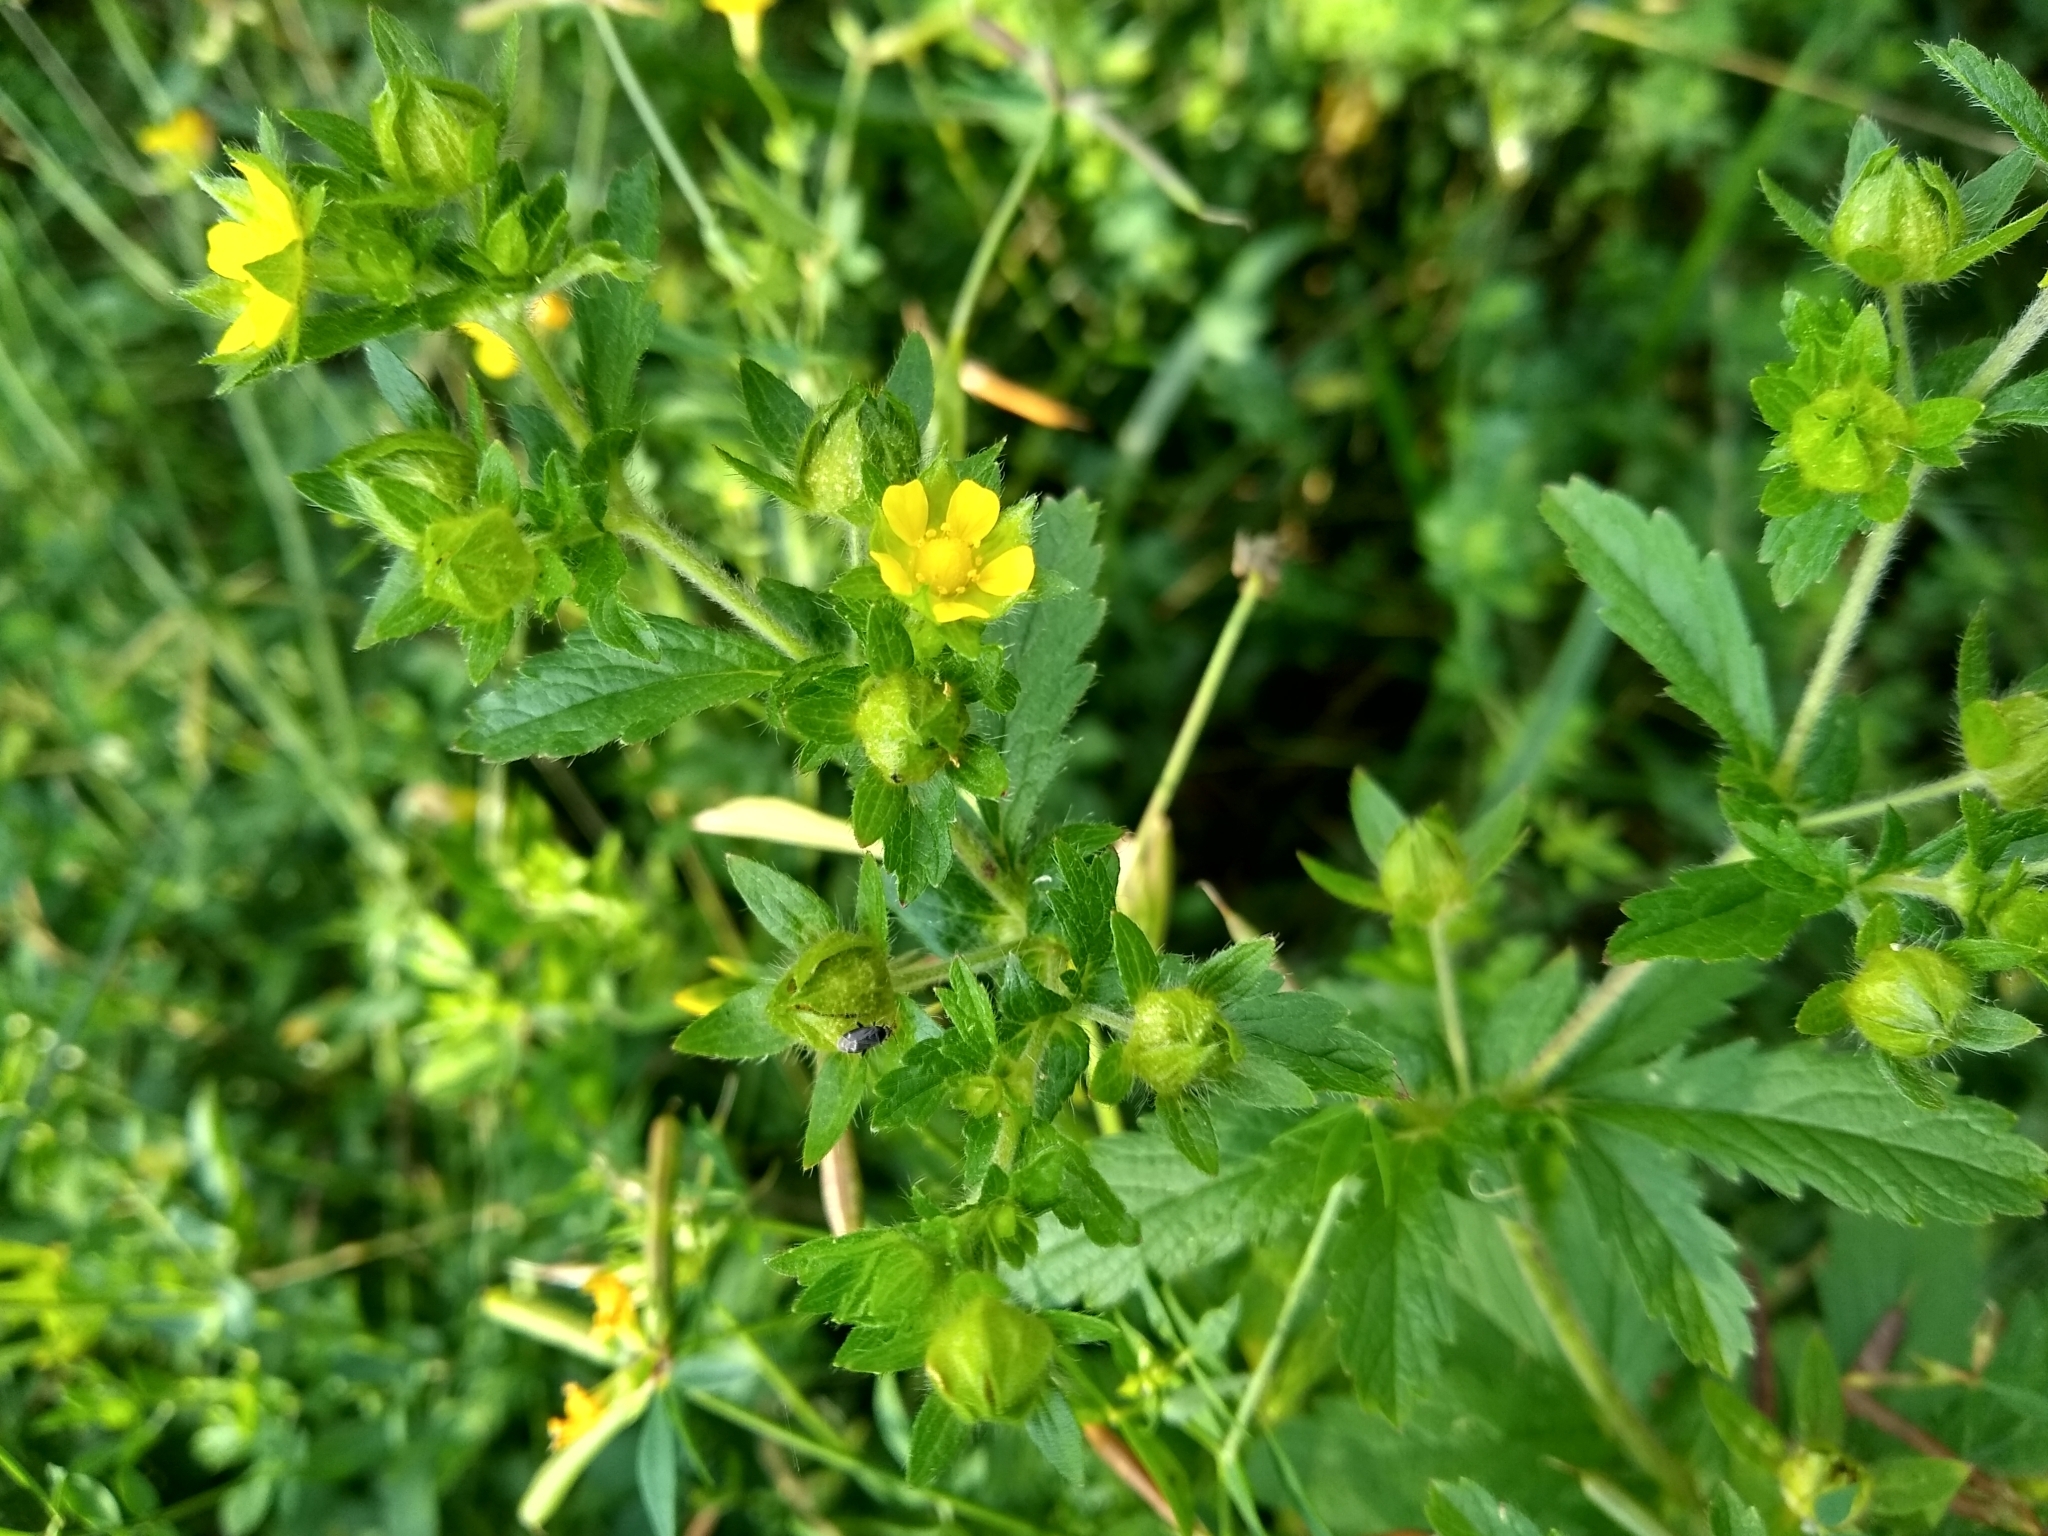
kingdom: Plantae
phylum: Tracheophyta
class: Magnoliopsida
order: Rosales
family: Rosaceae
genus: Potentilla
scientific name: Potentilla norvegica
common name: Ternate-leaved cinquefoil
